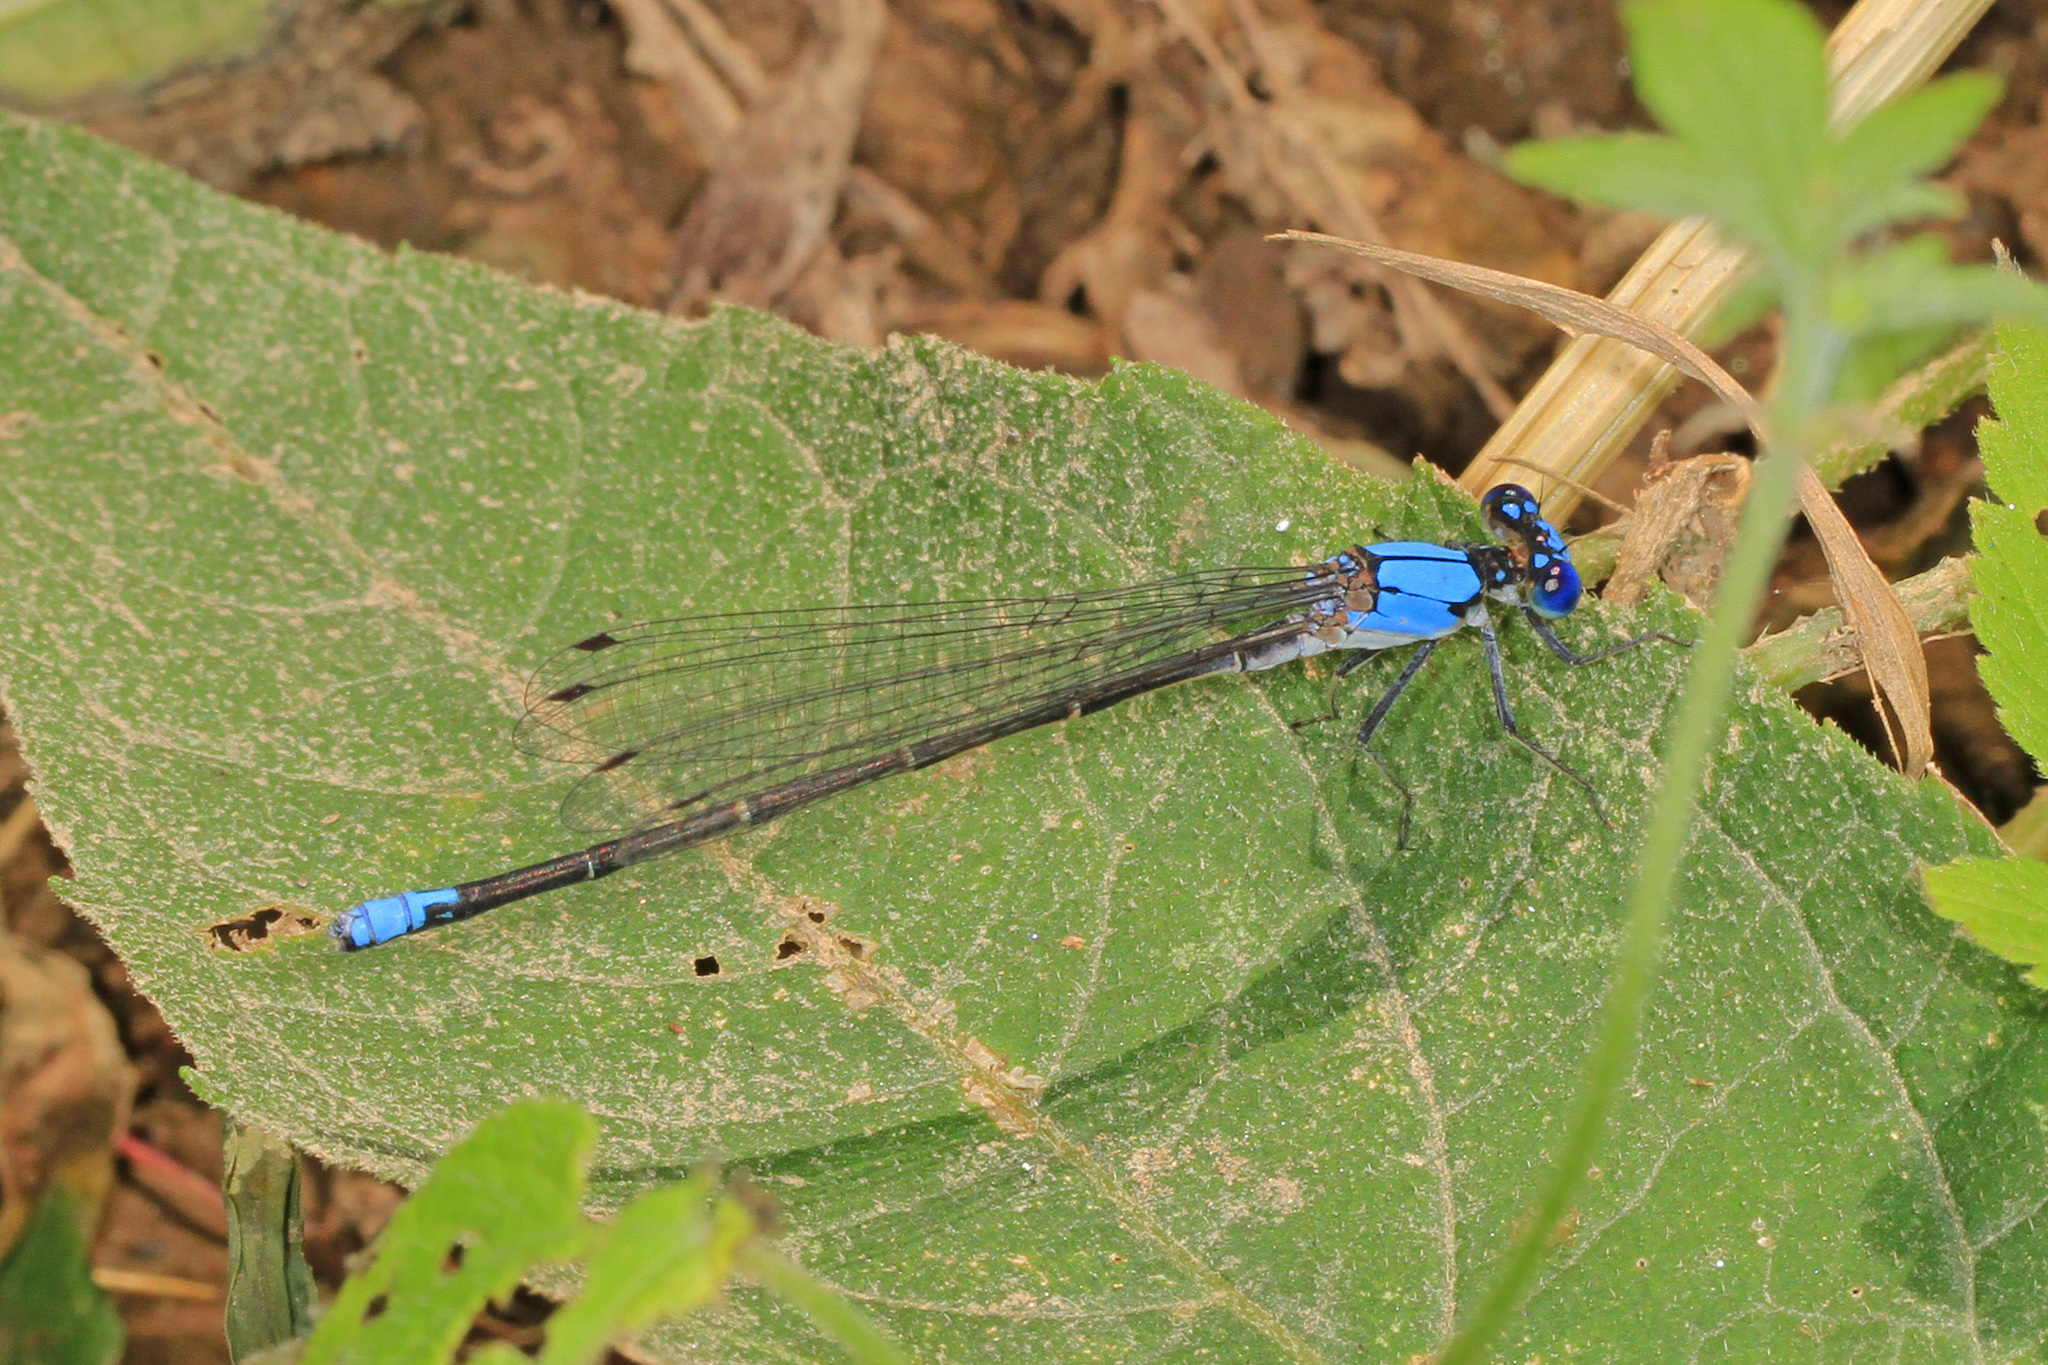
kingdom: Animalia
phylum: Arthropoda
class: Insecta
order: Odonata
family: Coenagrionidae
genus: Argia
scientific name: Argia apicalis
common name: Blue-fronted dancer
